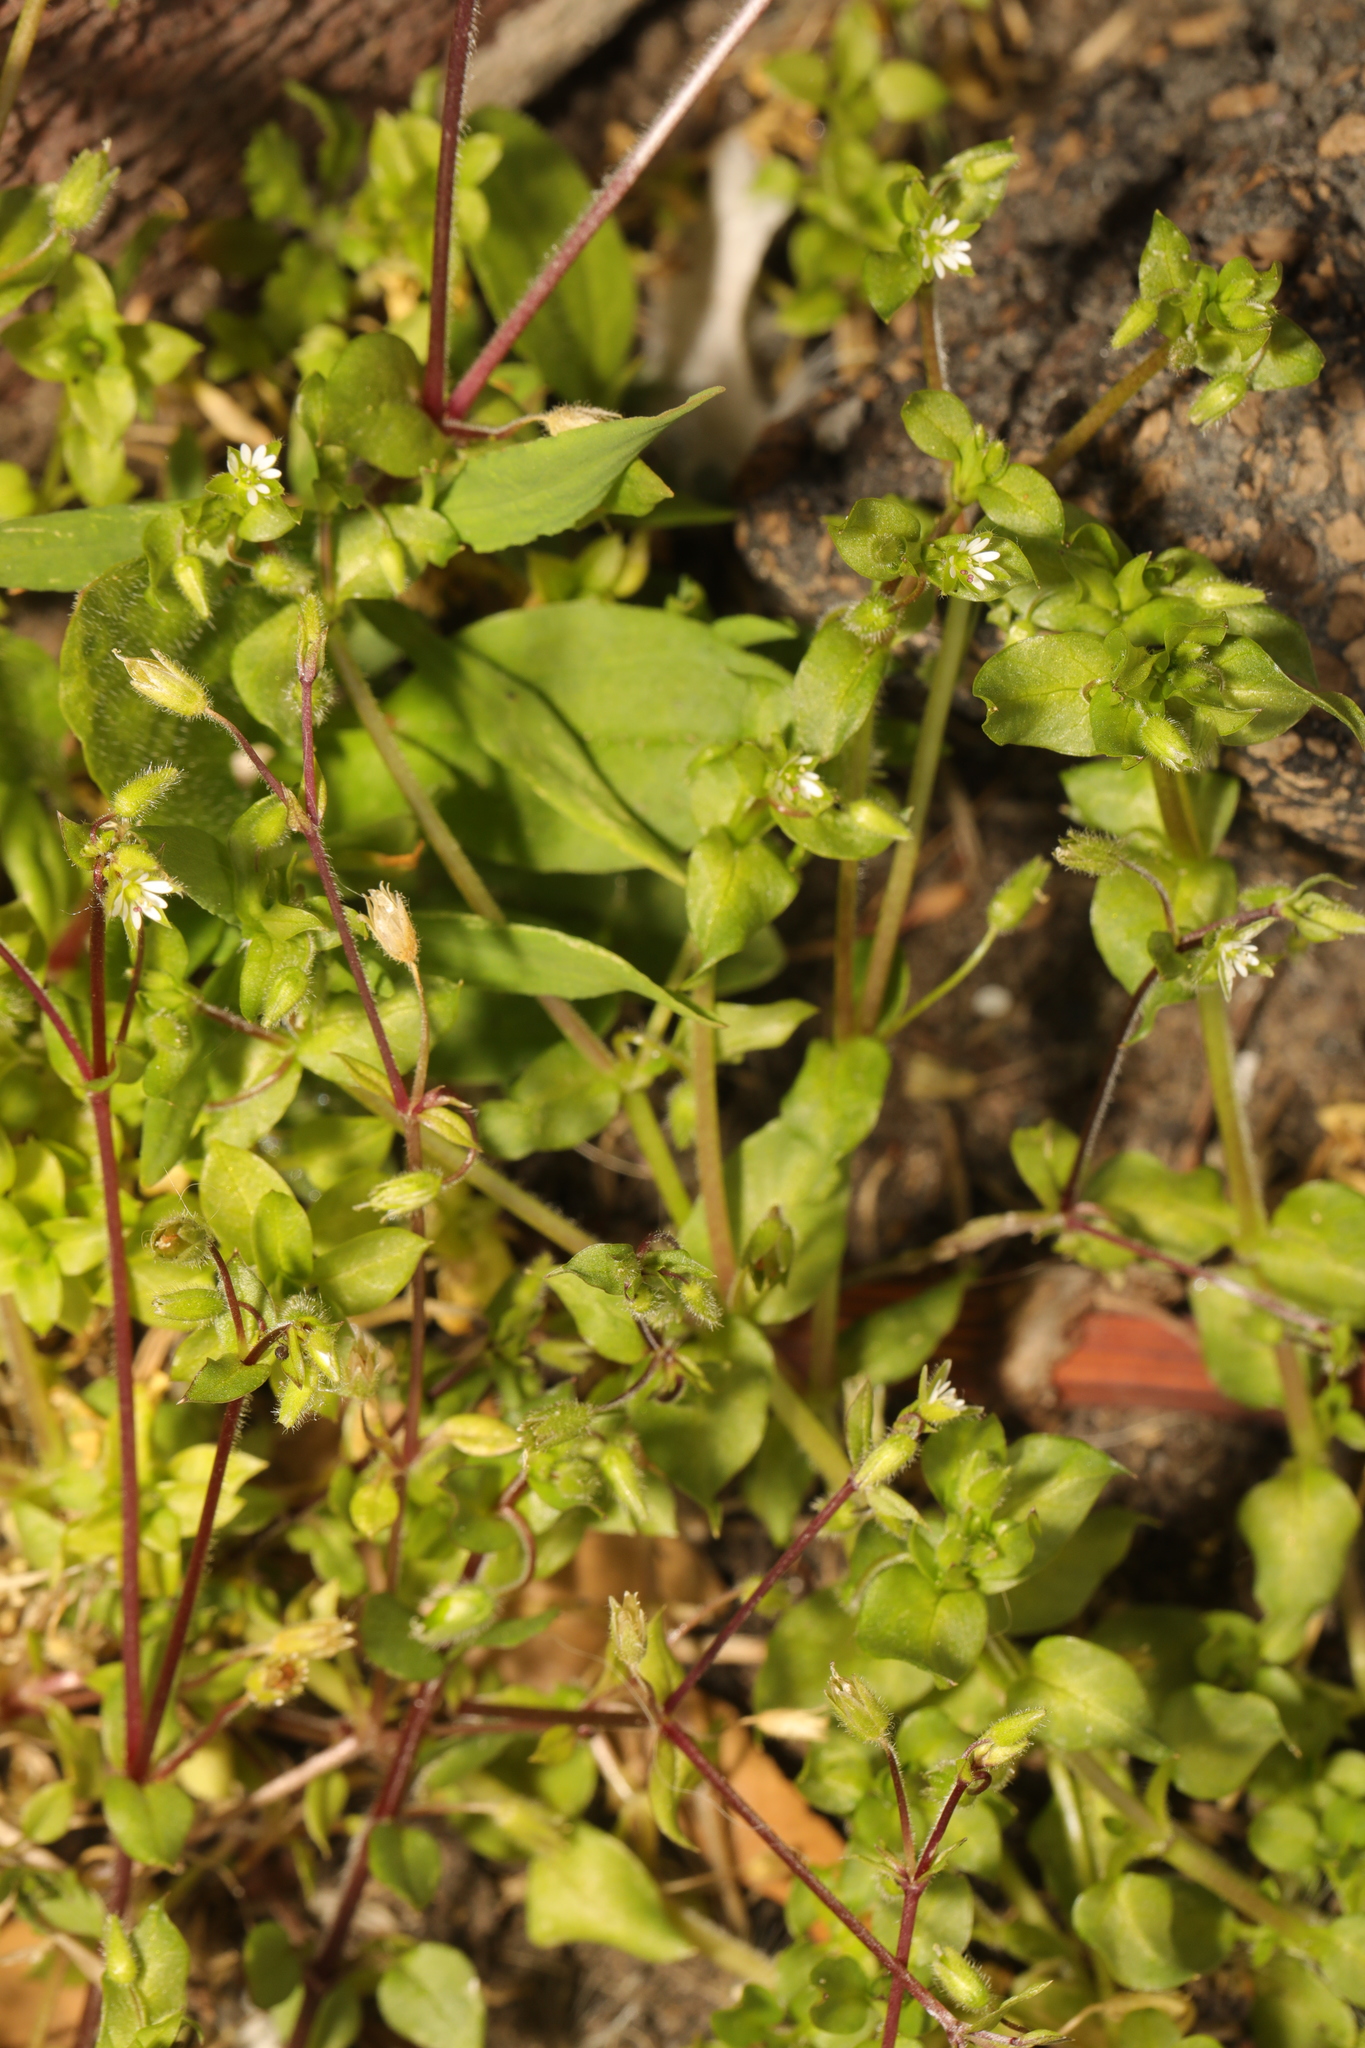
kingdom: Plantae
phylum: Tracheophyta
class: Magnoliopsida
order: Caryophyllales
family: Caryophyllaceae
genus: Stellaria
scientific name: Stellaria media
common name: Common chickweed
